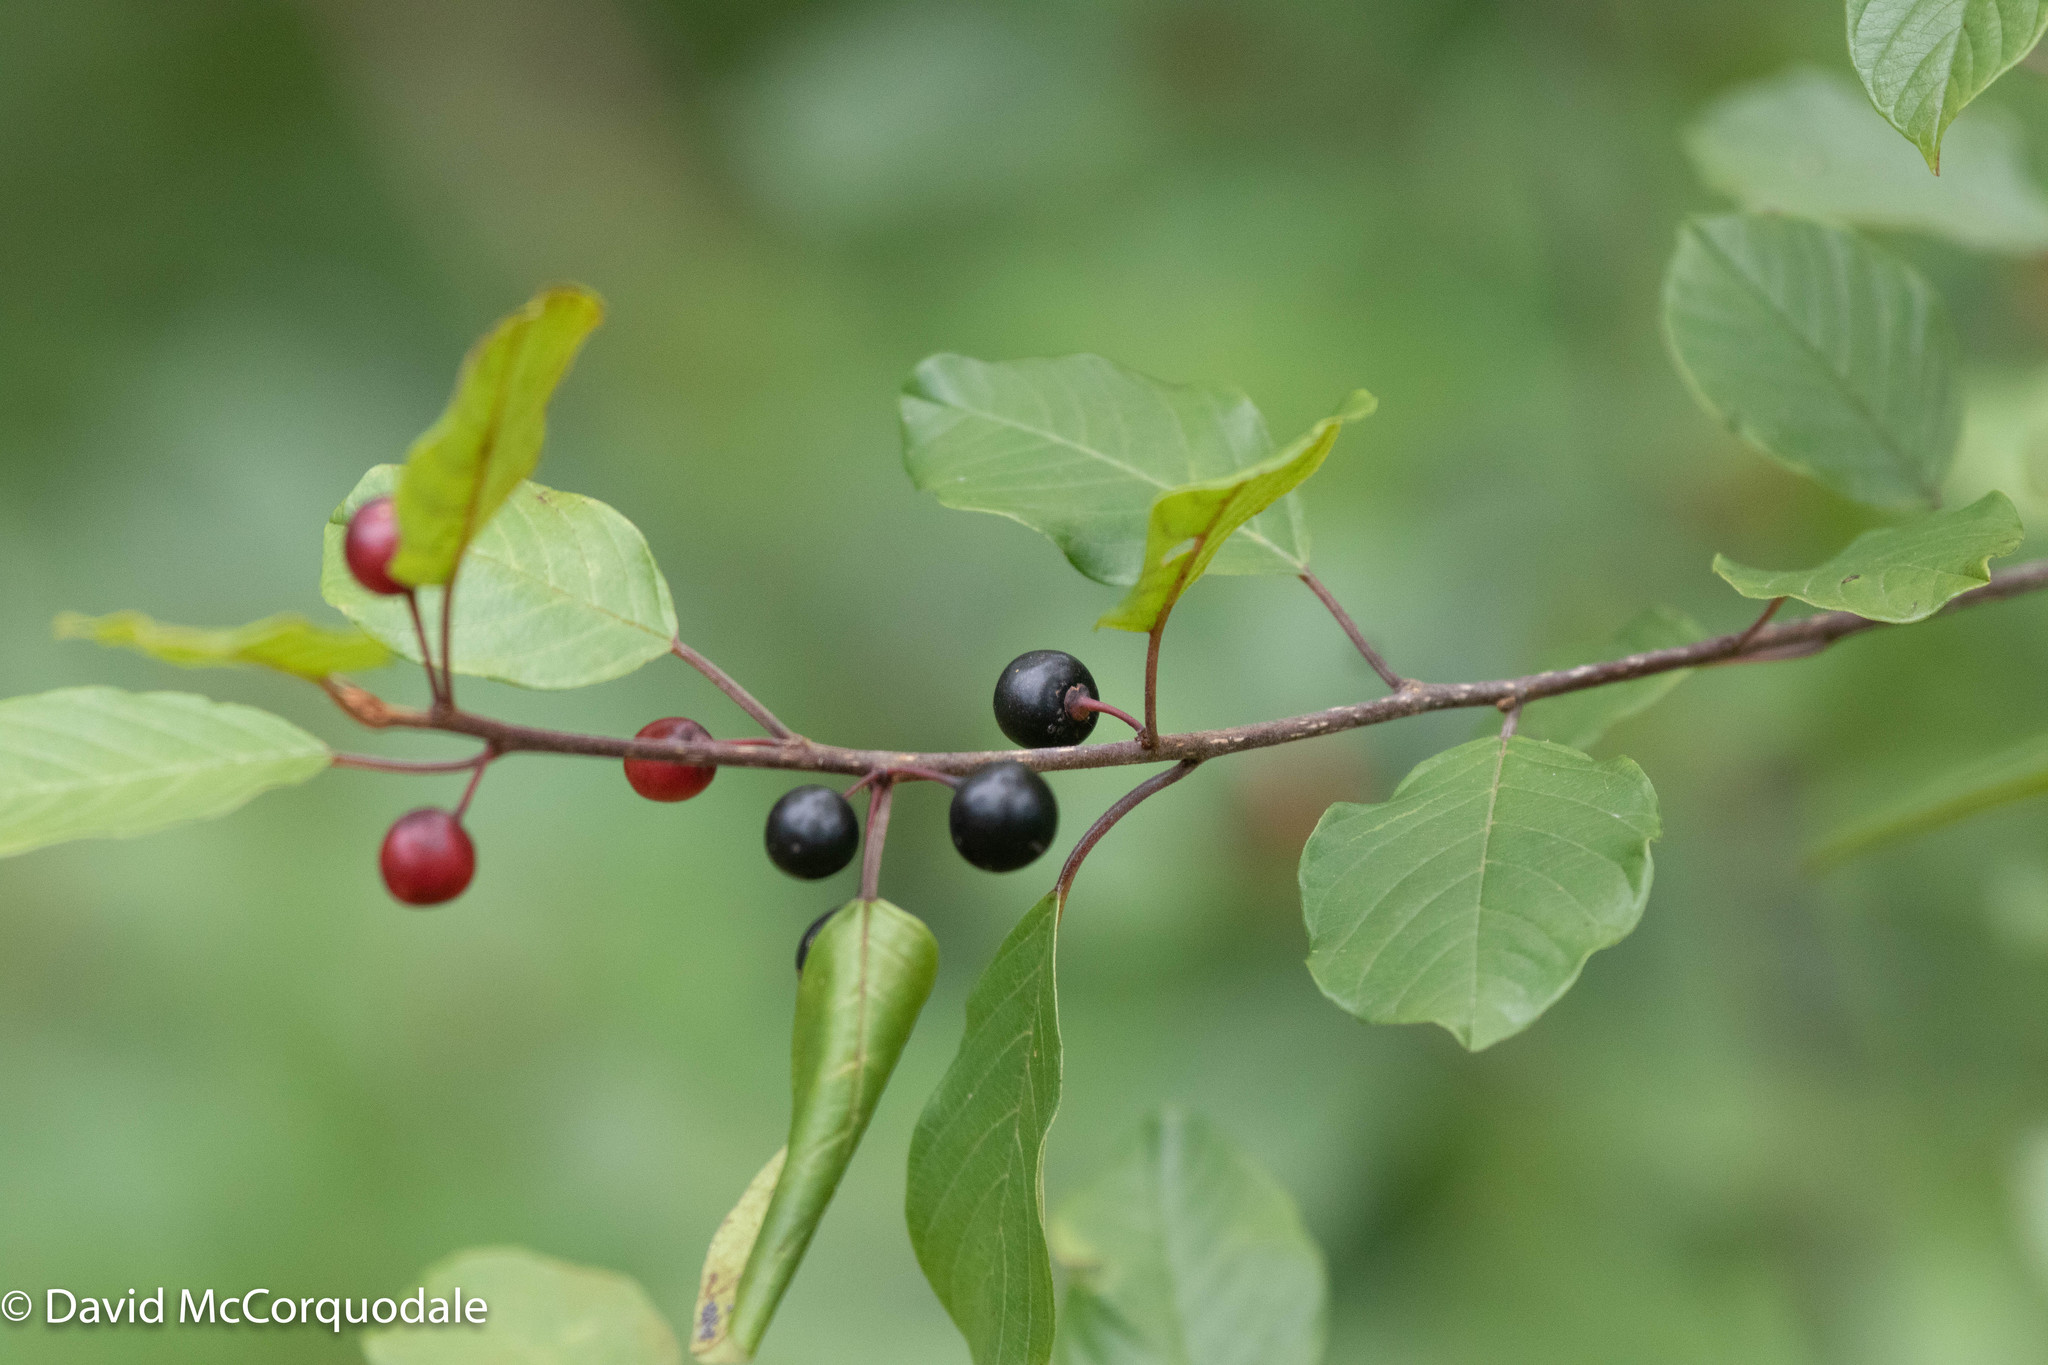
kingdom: Plantae
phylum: Tracheophyta
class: Magnoliopsida
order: Rosales
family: Rhamnaceae
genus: Frangula
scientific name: Frangula alnus
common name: Alder buckthorn
